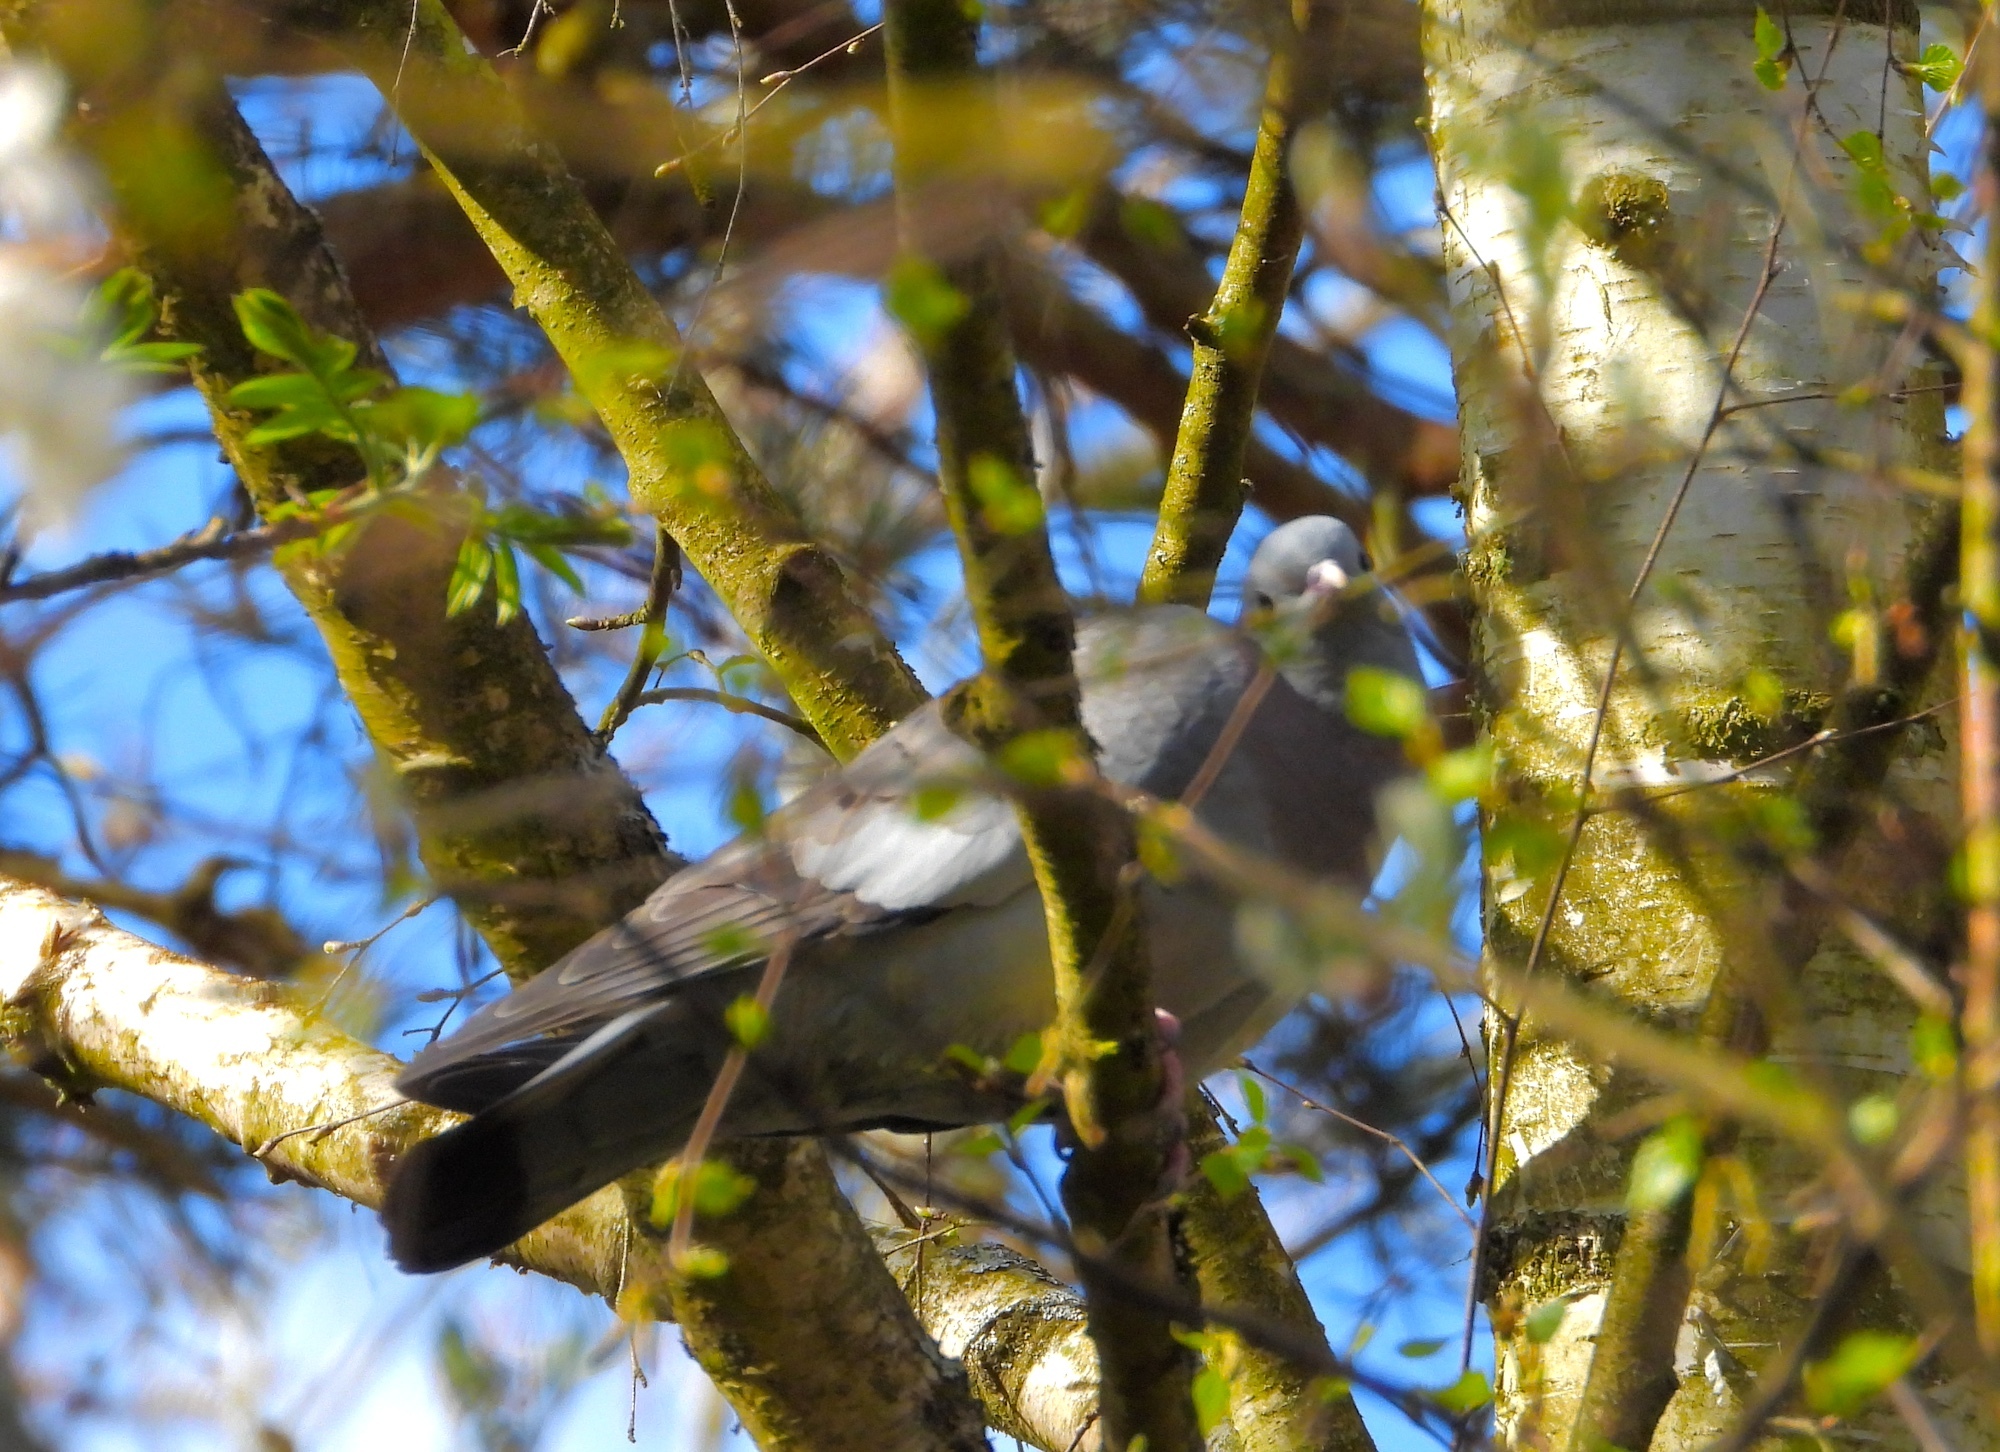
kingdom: Animalia
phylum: Chordata
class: Aves
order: Columbiformes
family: Columbidae
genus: Columba
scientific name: Columba oenas
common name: Stock dove
